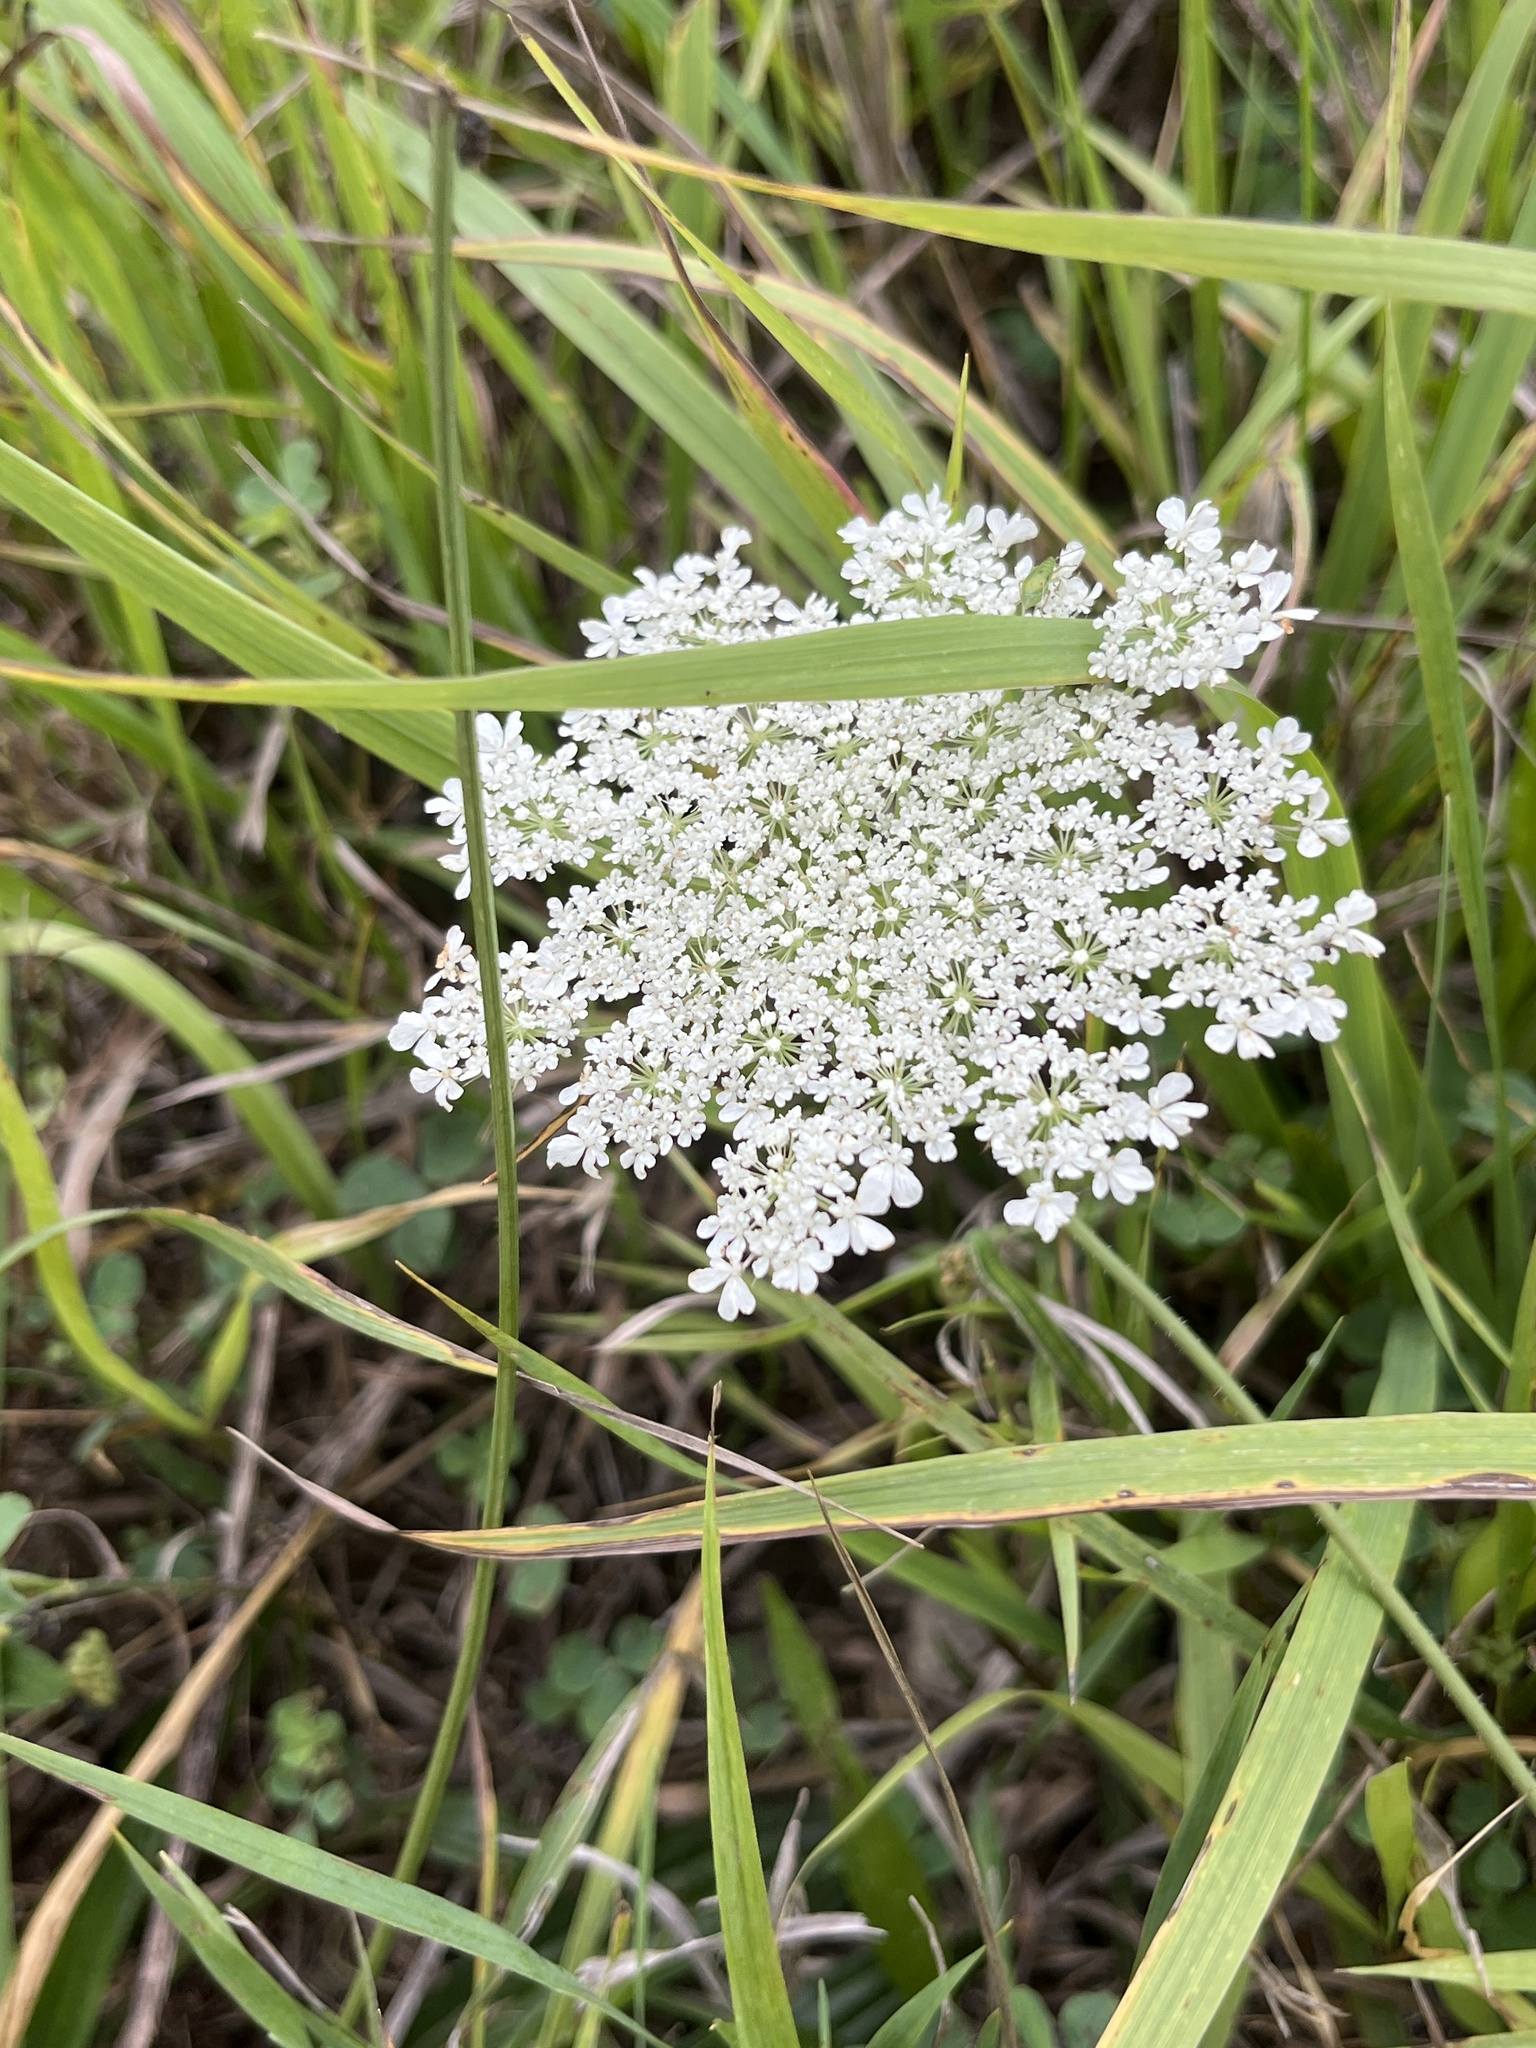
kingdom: Plantae
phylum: Tracheophyta
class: Magnoliopsida
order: Apiales
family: Apiaceae
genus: Daucus
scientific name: Daucus carota
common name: Wild carrot
